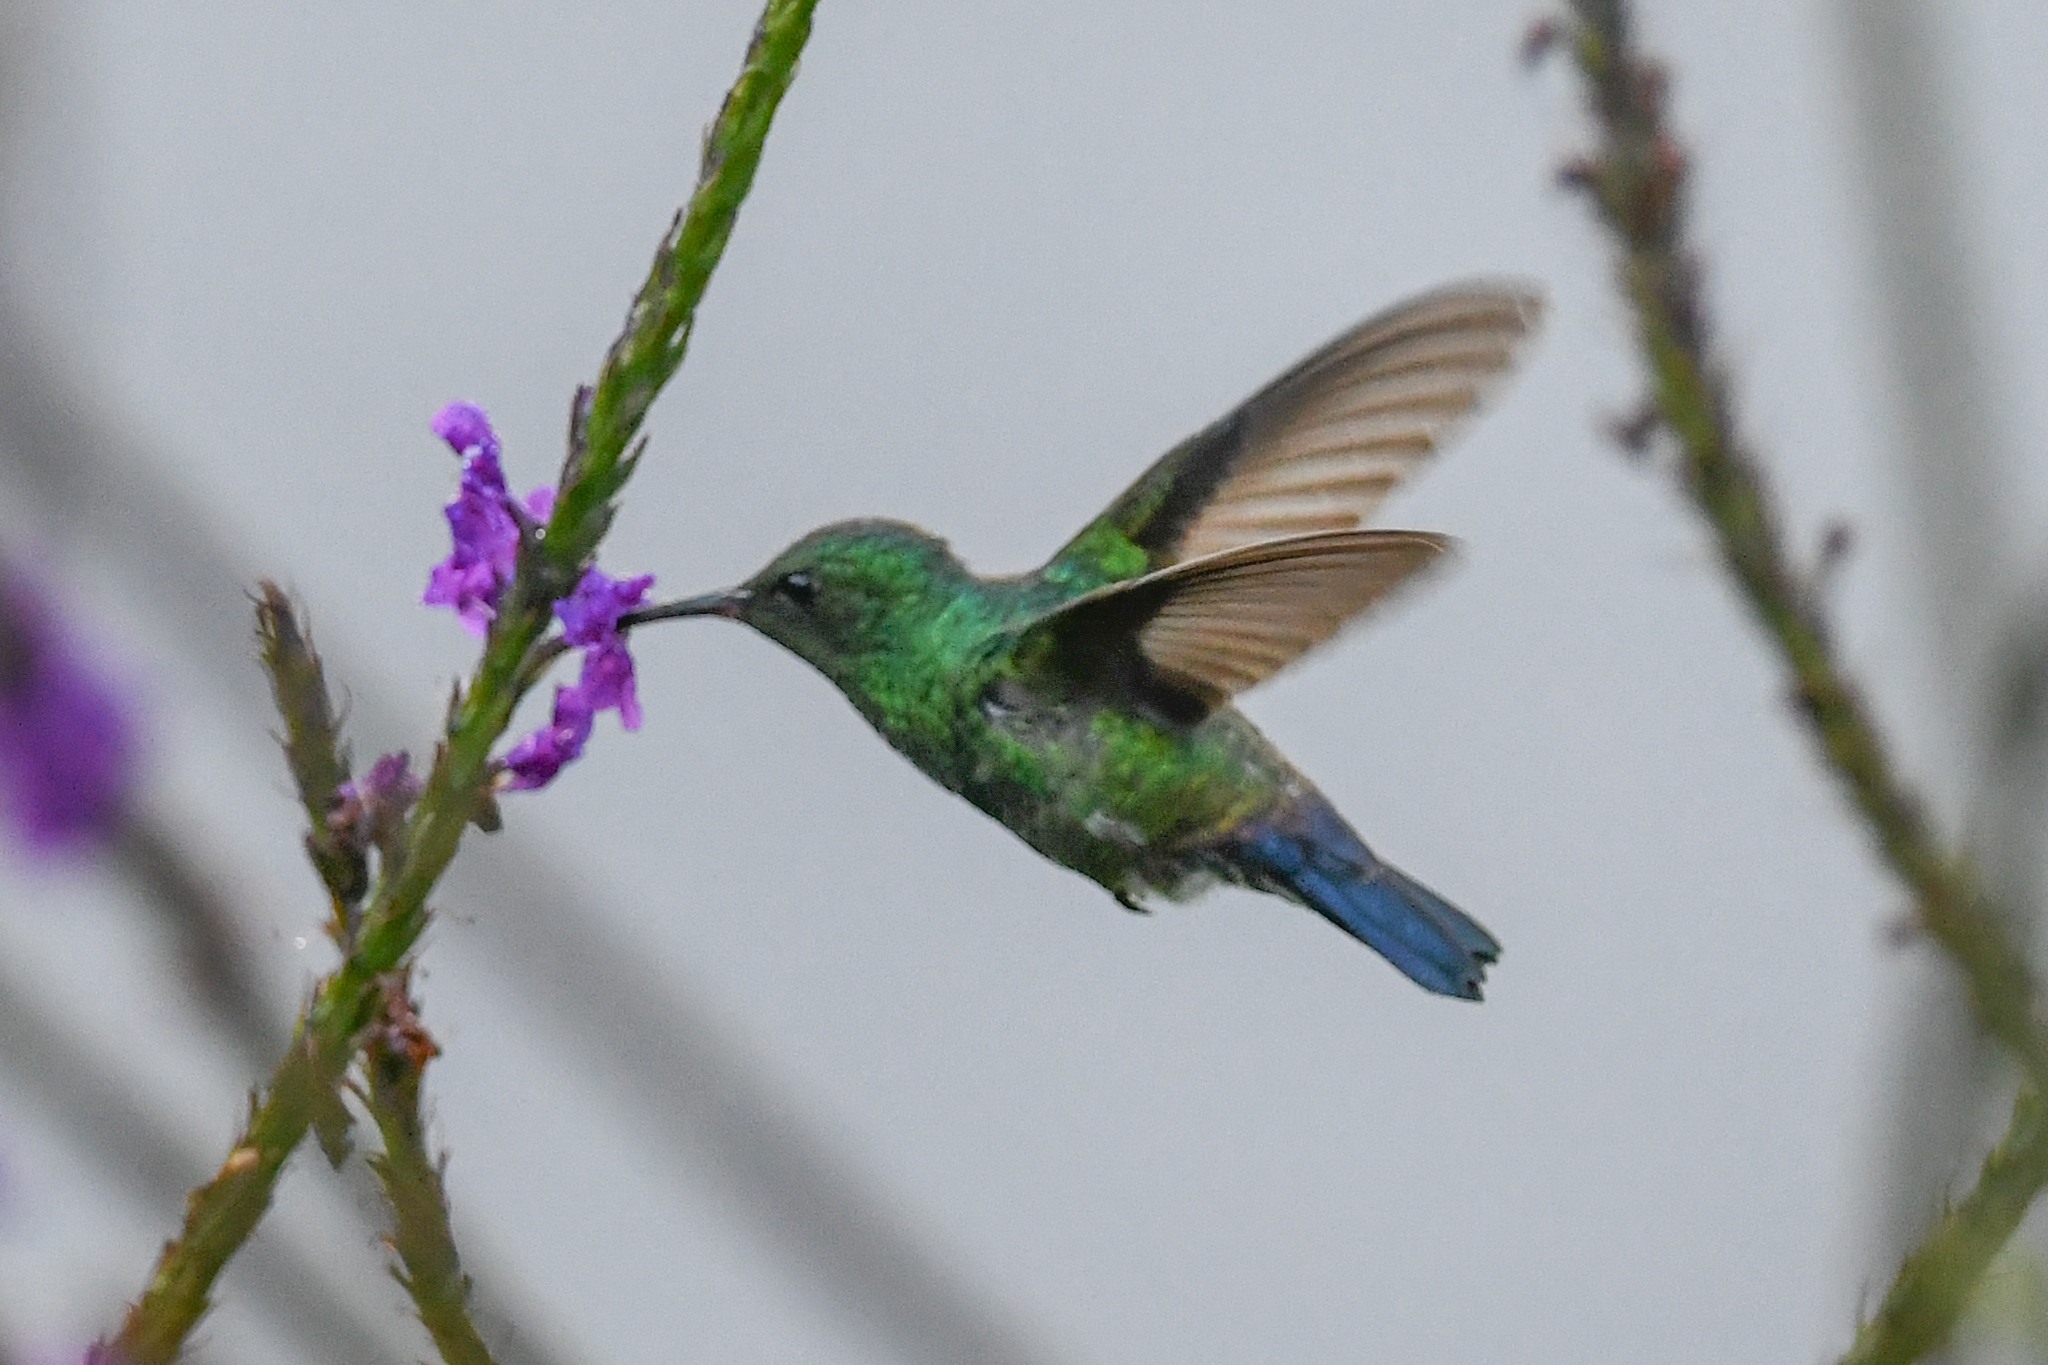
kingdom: Animalia
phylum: Chordata
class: Aves
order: Apodiformes
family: Trochilidae
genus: Saucerottia
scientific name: Saucerottia hoffmanni
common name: Blue-vented hummingbird
